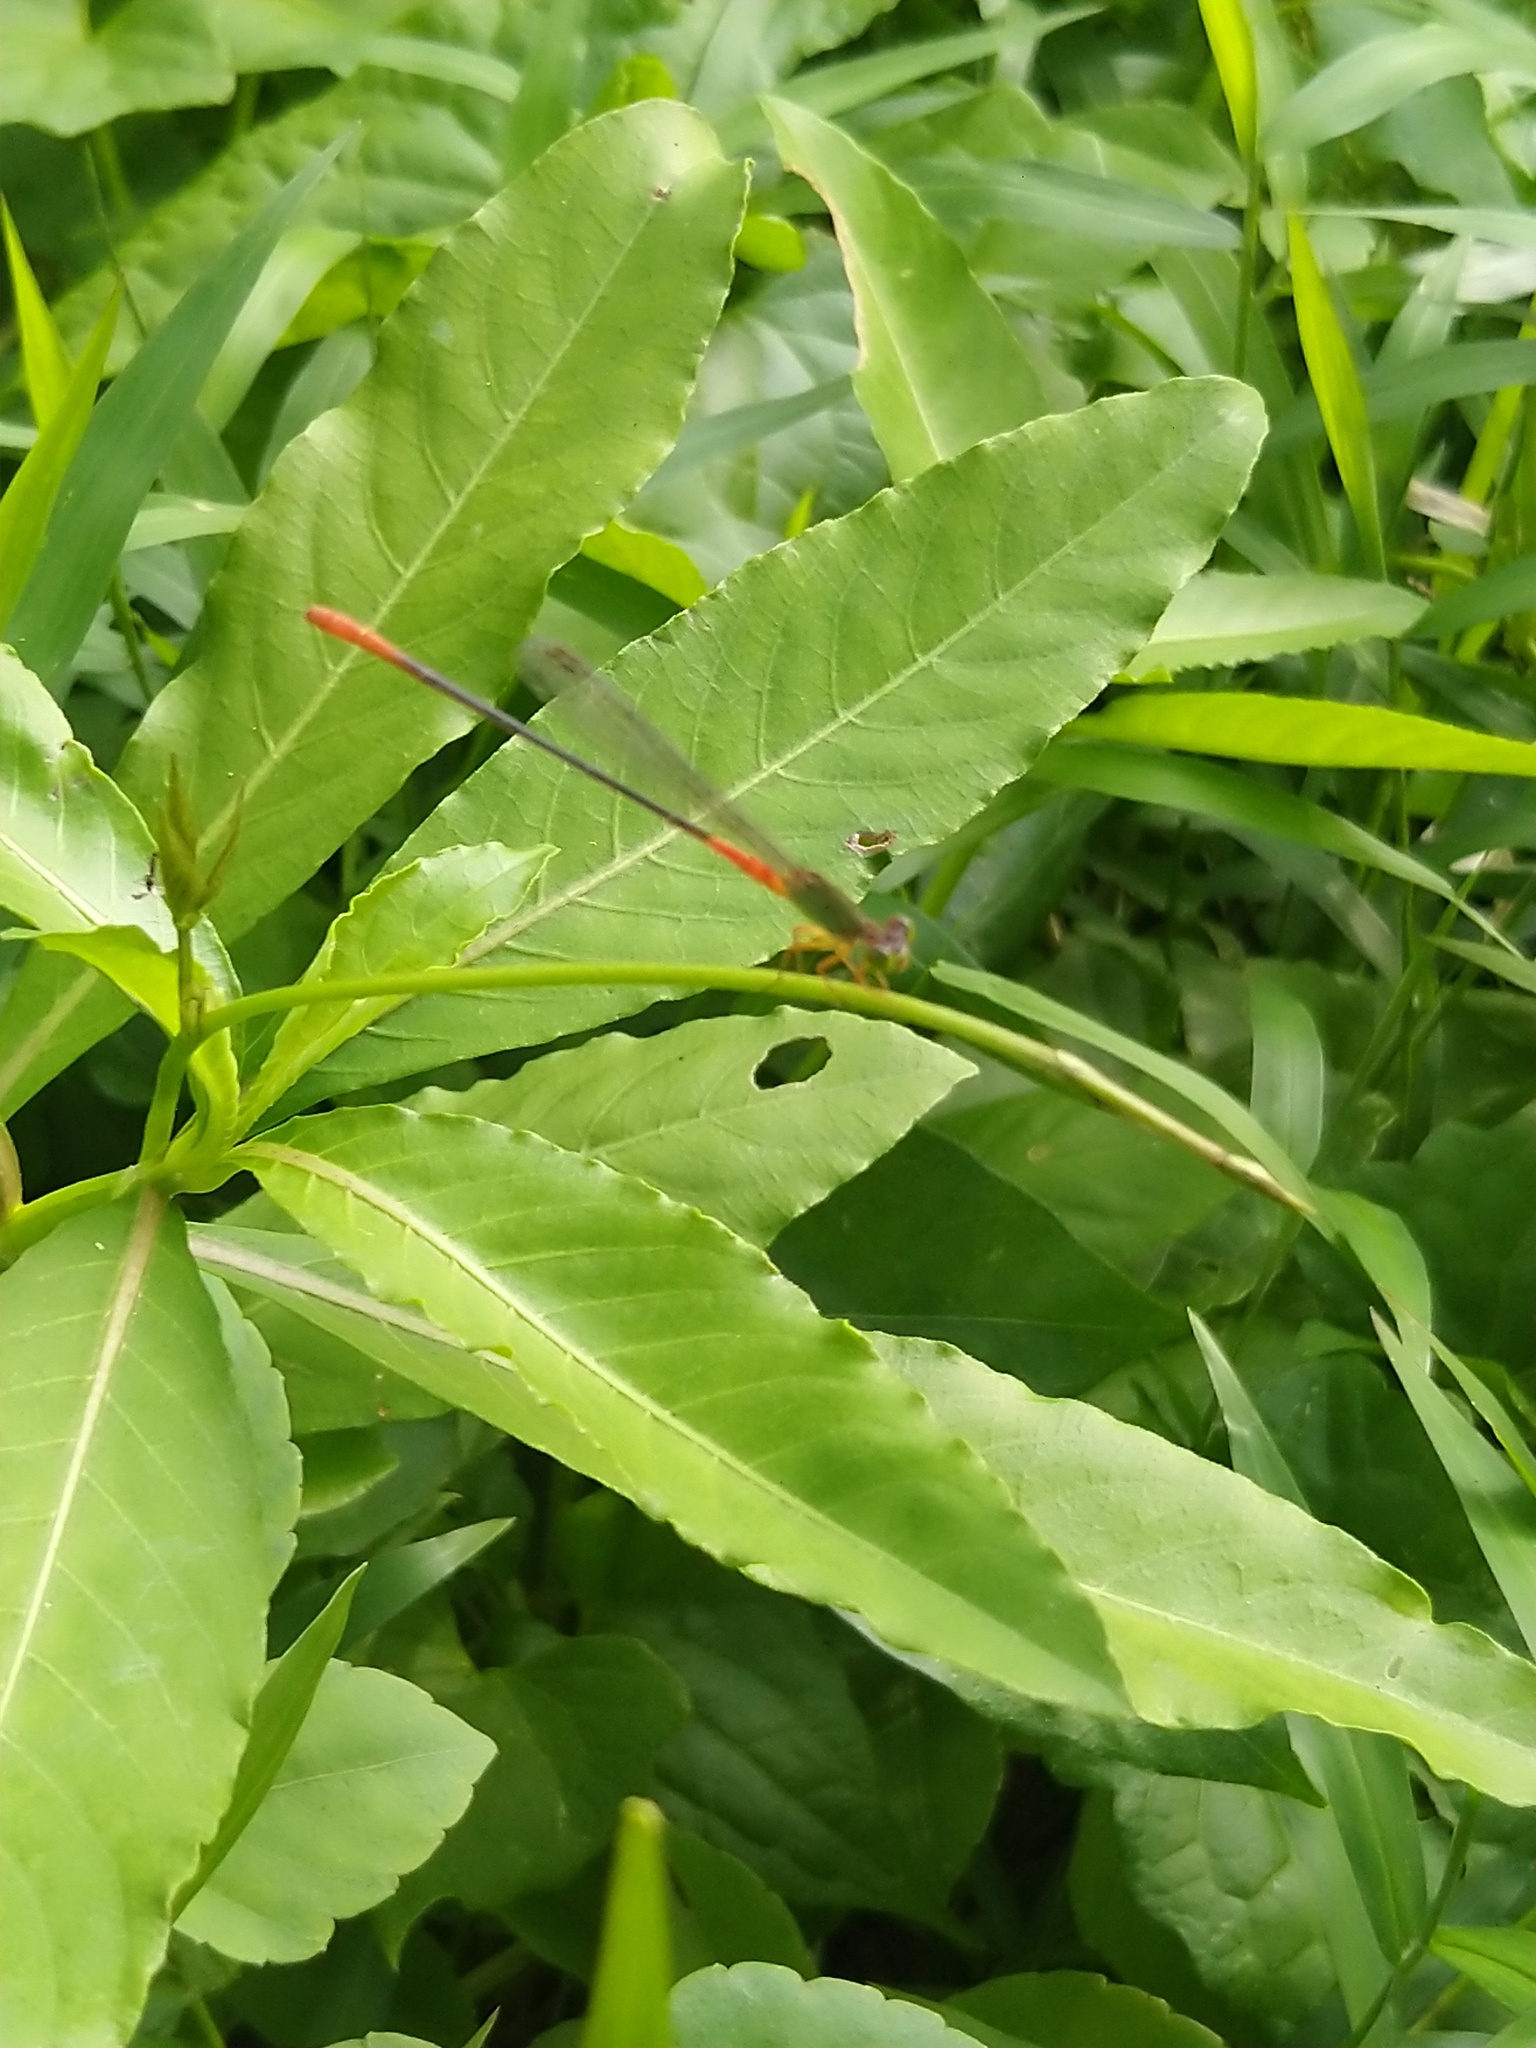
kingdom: Animalia
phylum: Arthropoda
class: Insecta
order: Odonata
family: Coenagrionidae
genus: Ceriagrion
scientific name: Ceriagrion cerinorubellum
